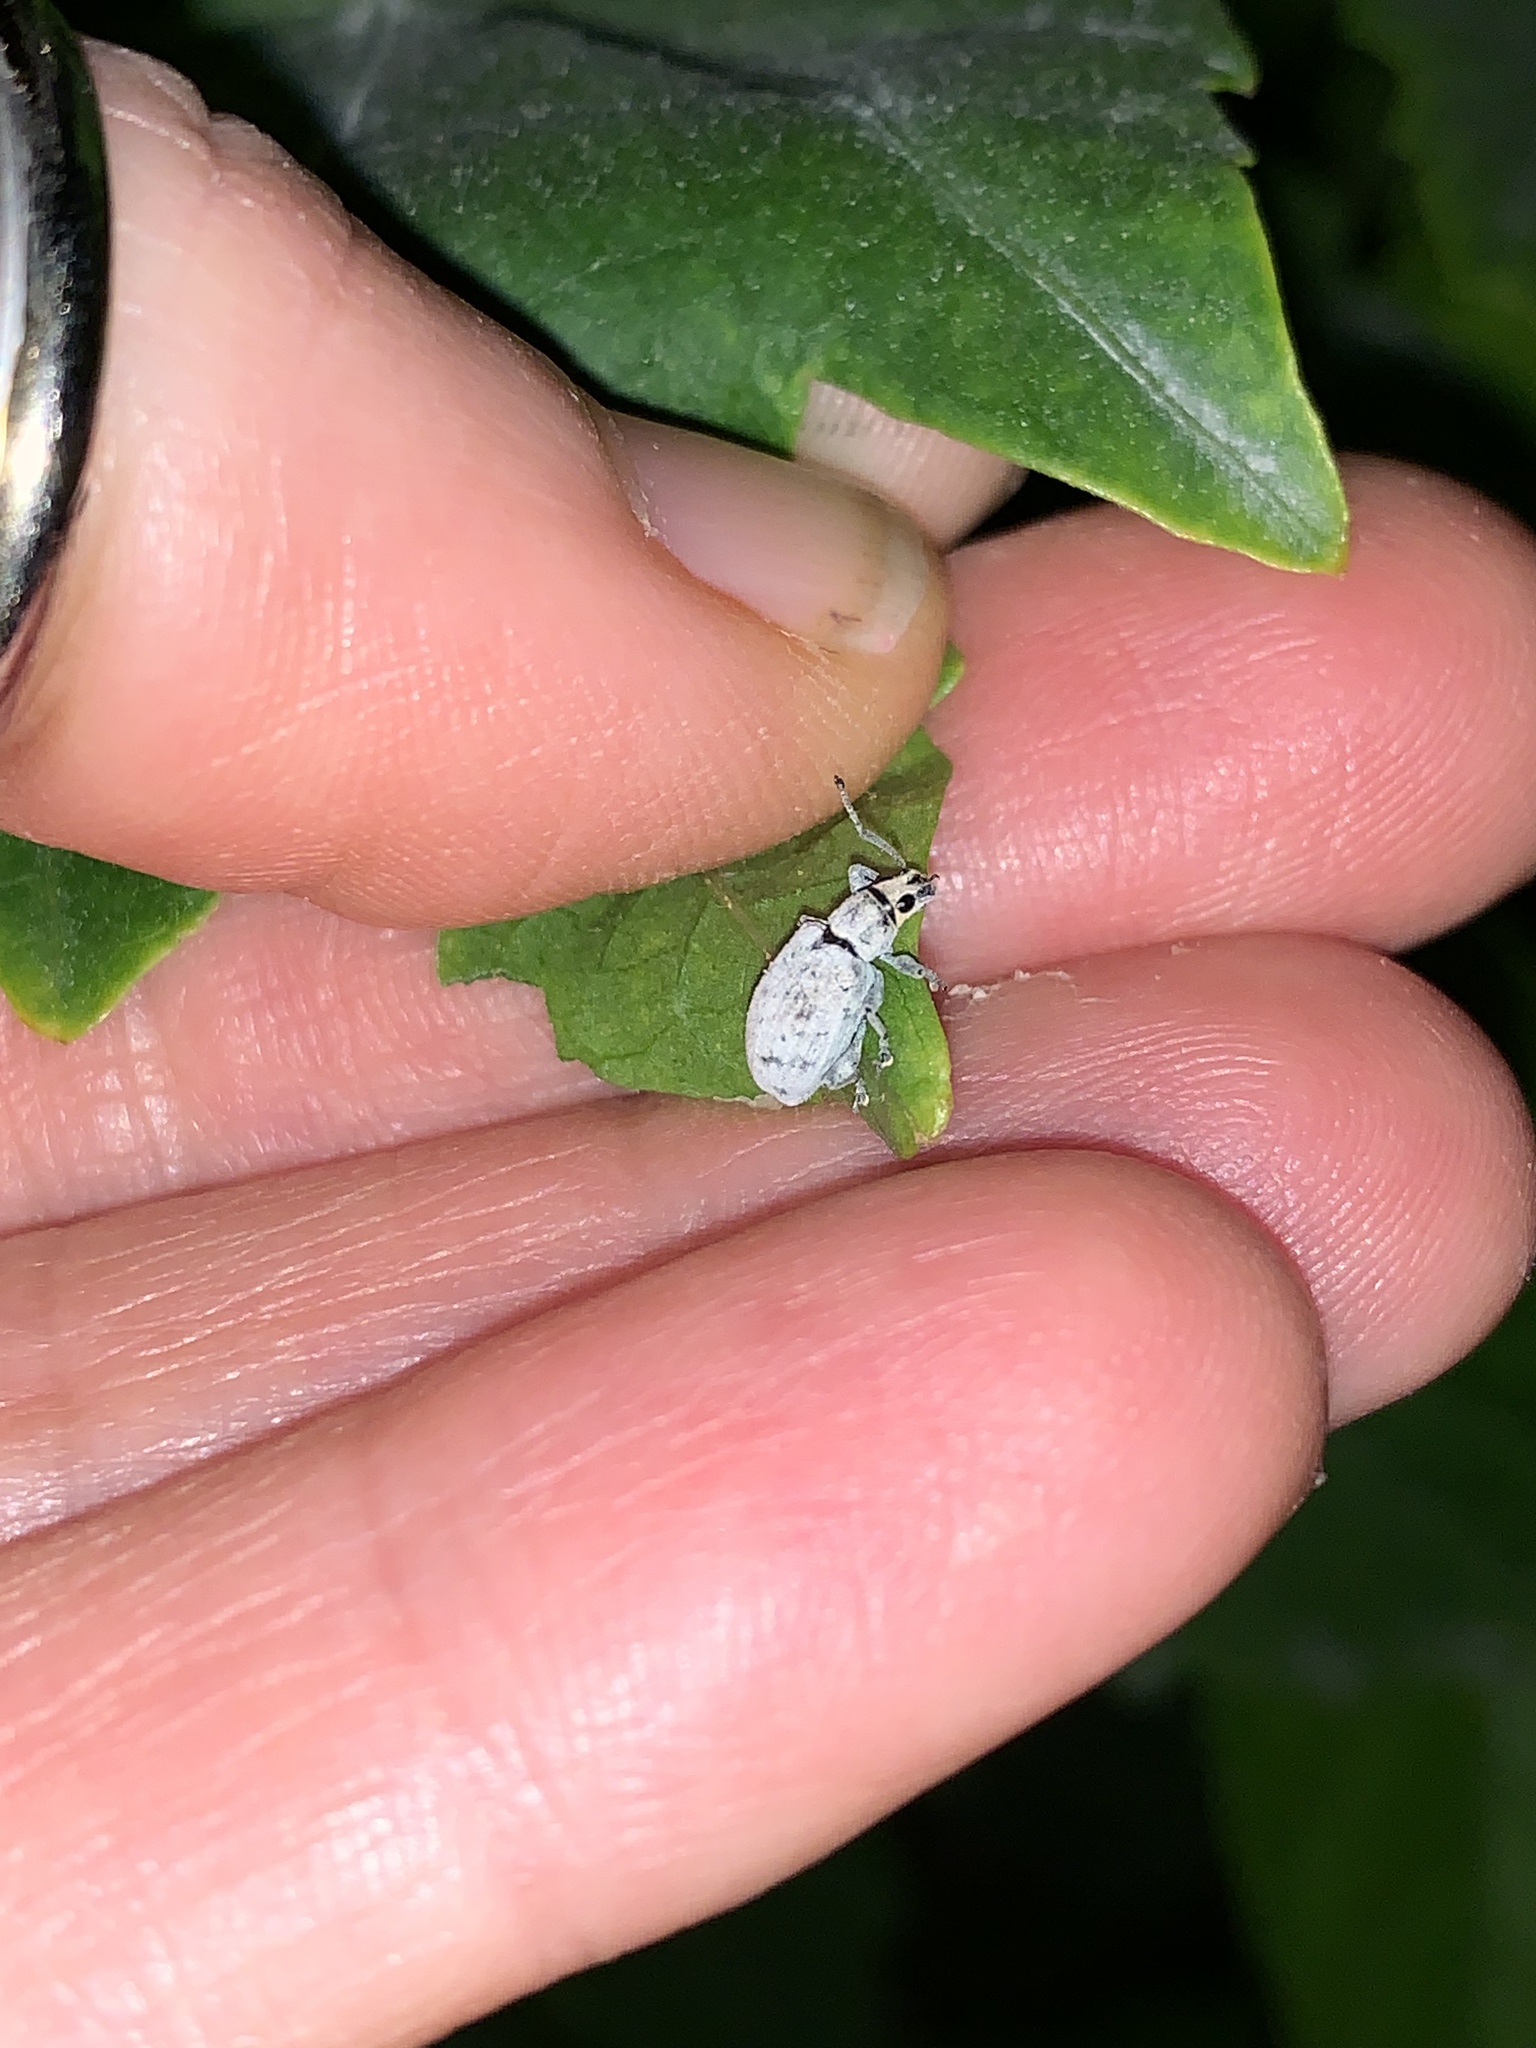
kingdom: Animalia
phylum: Arthropoda
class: Insecta
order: Coleoptera
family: Curculionidae
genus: Myllocerus
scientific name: Myllocerus undecimpustulatus
